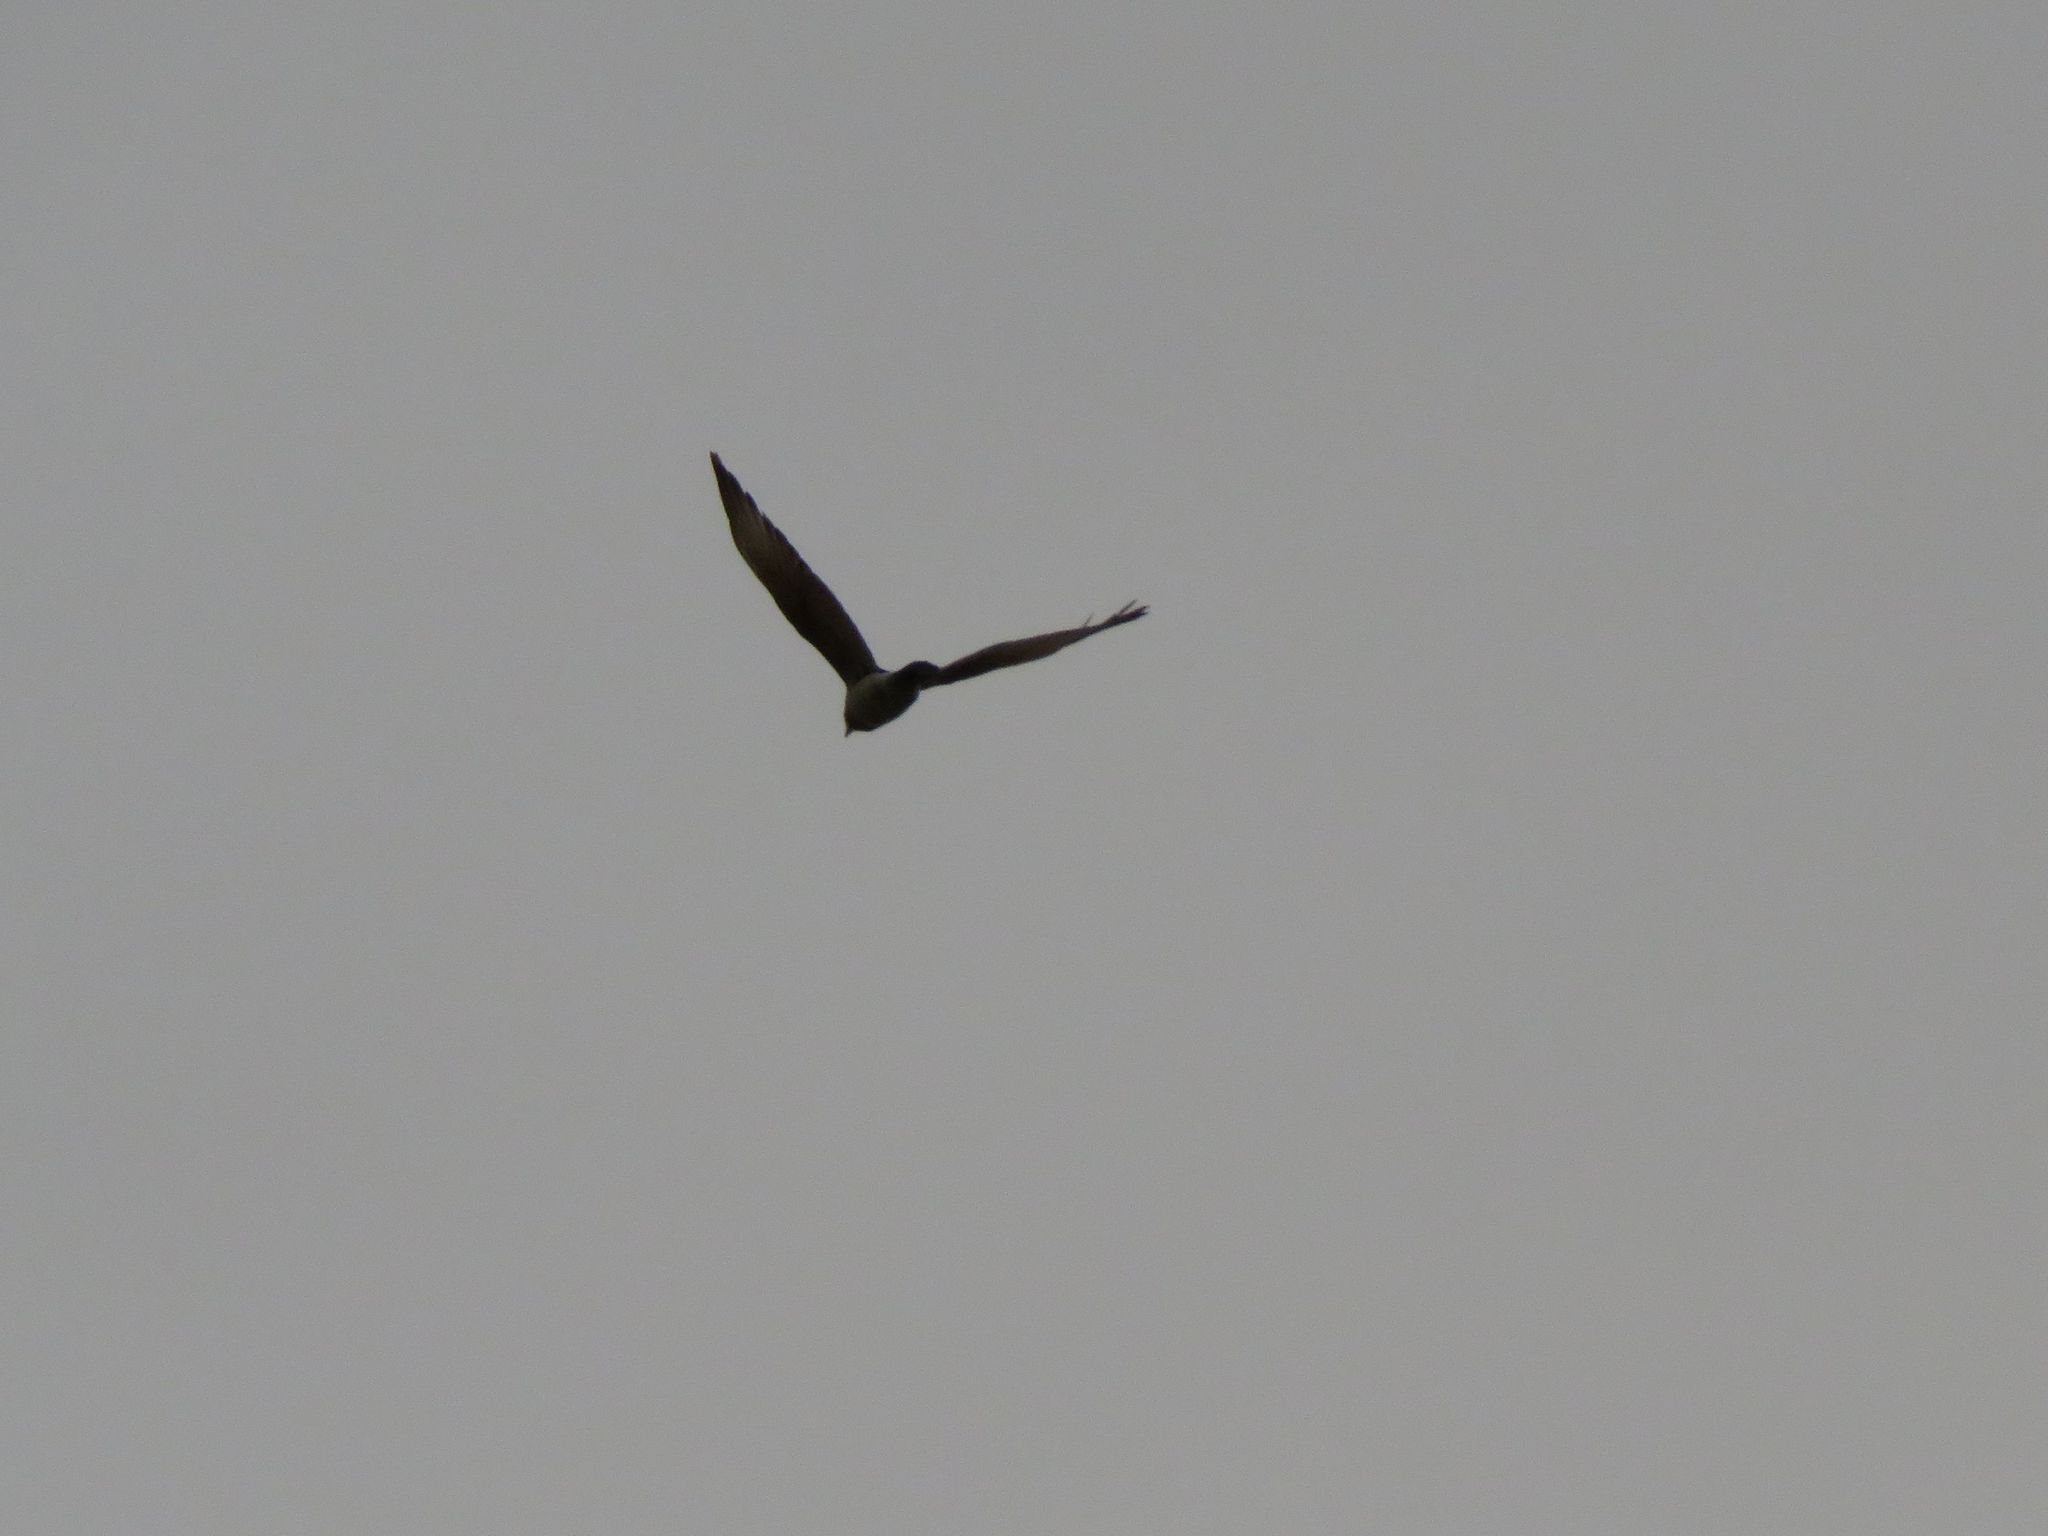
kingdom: Animalia
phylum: Chordata
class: Aves
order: Falconiformes
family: Falconidae
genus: Daptrius
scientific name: Daptrius
